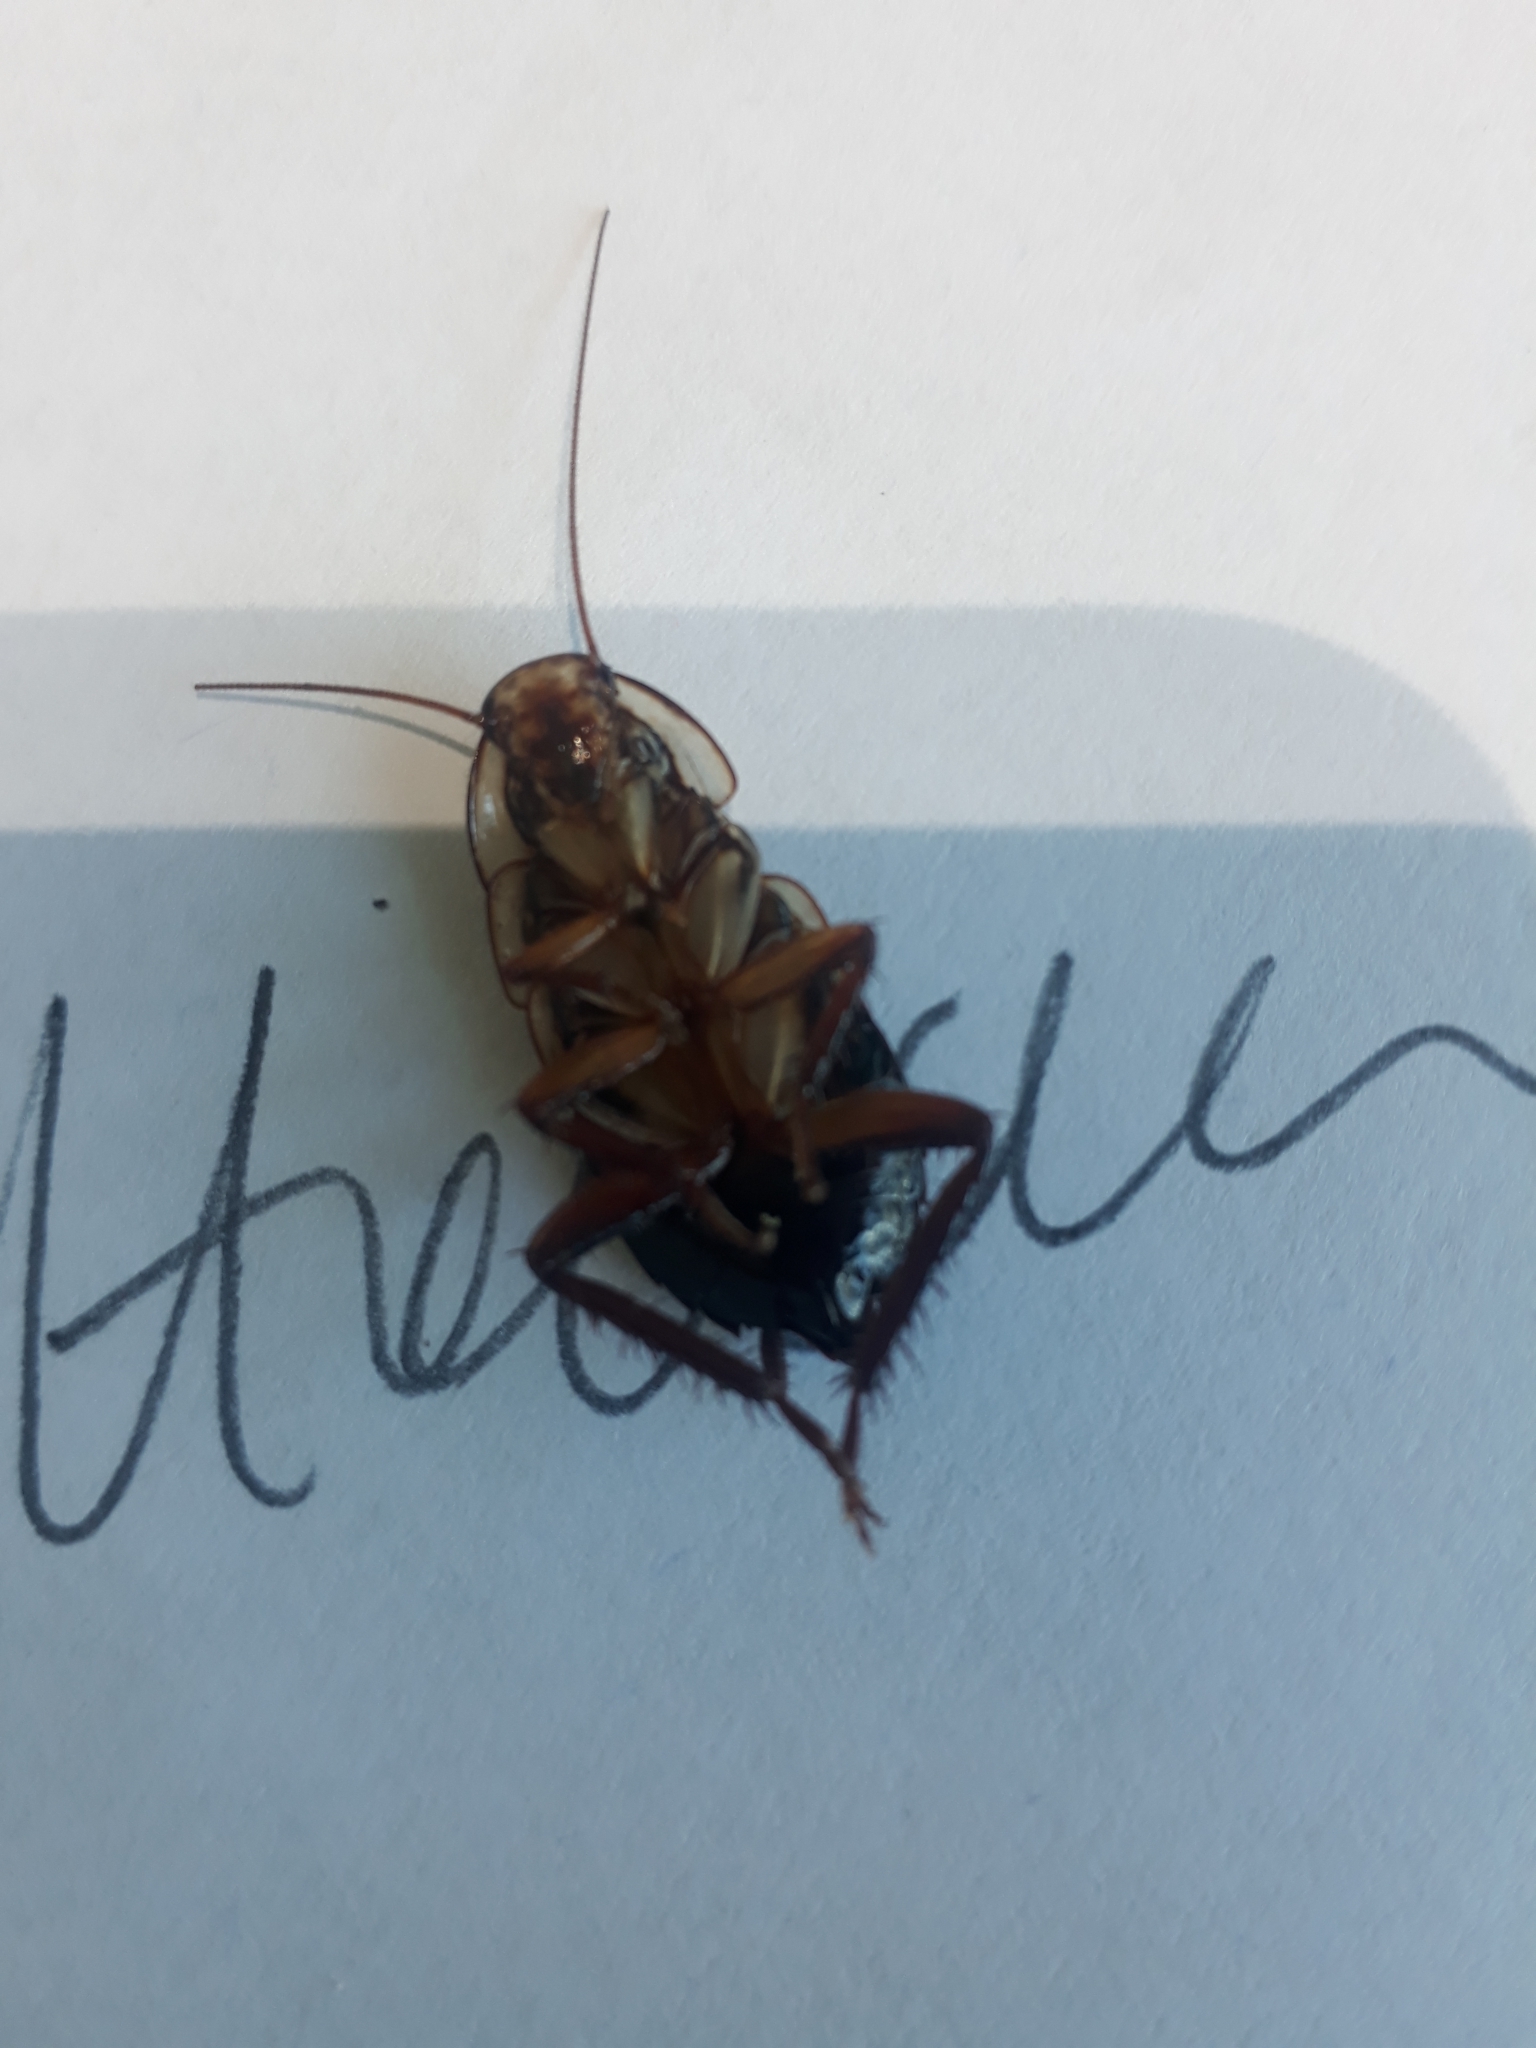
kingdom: Animalia
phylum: Arthropoda
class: Insecta
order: Blattodea
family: Blattidae
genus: Drymaplaneta
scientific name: Drymaplaneta semivitta
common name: Gisborne cockroach
